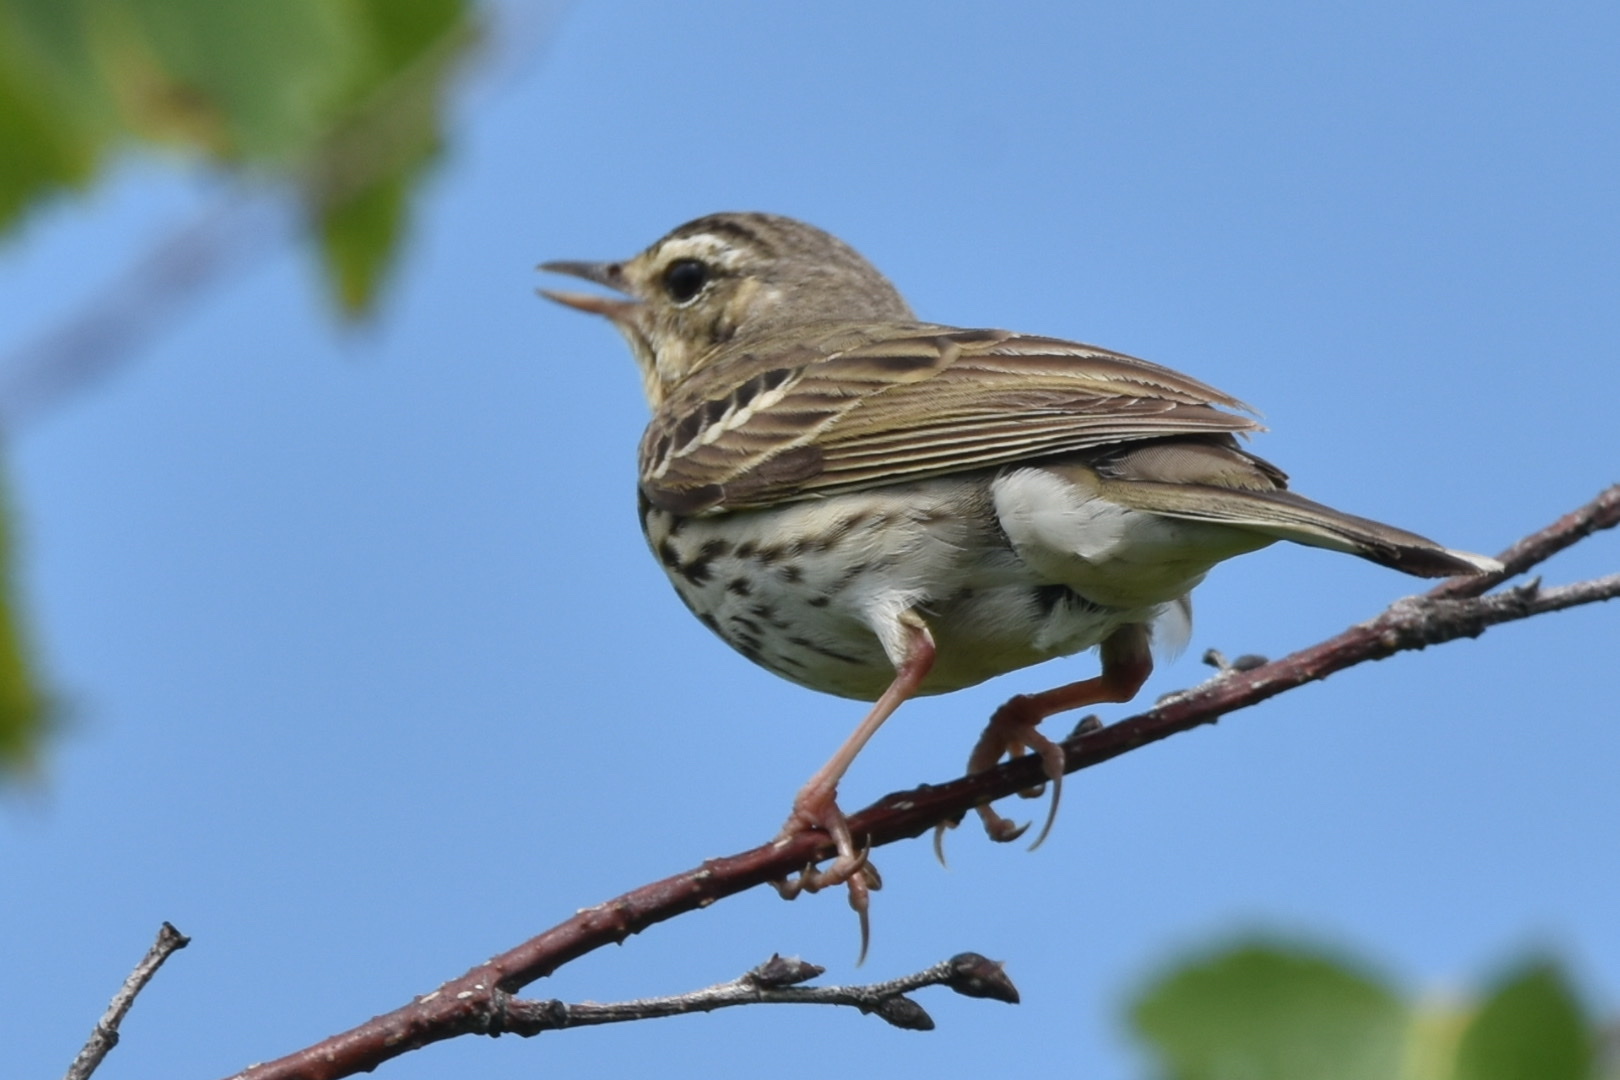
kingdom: Animalia
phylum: Chordata
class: Aves
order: Passeriformes
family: Motacillidae
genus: Anthus
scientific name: Anthus hodgsoni
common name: Olive-backed pipit
